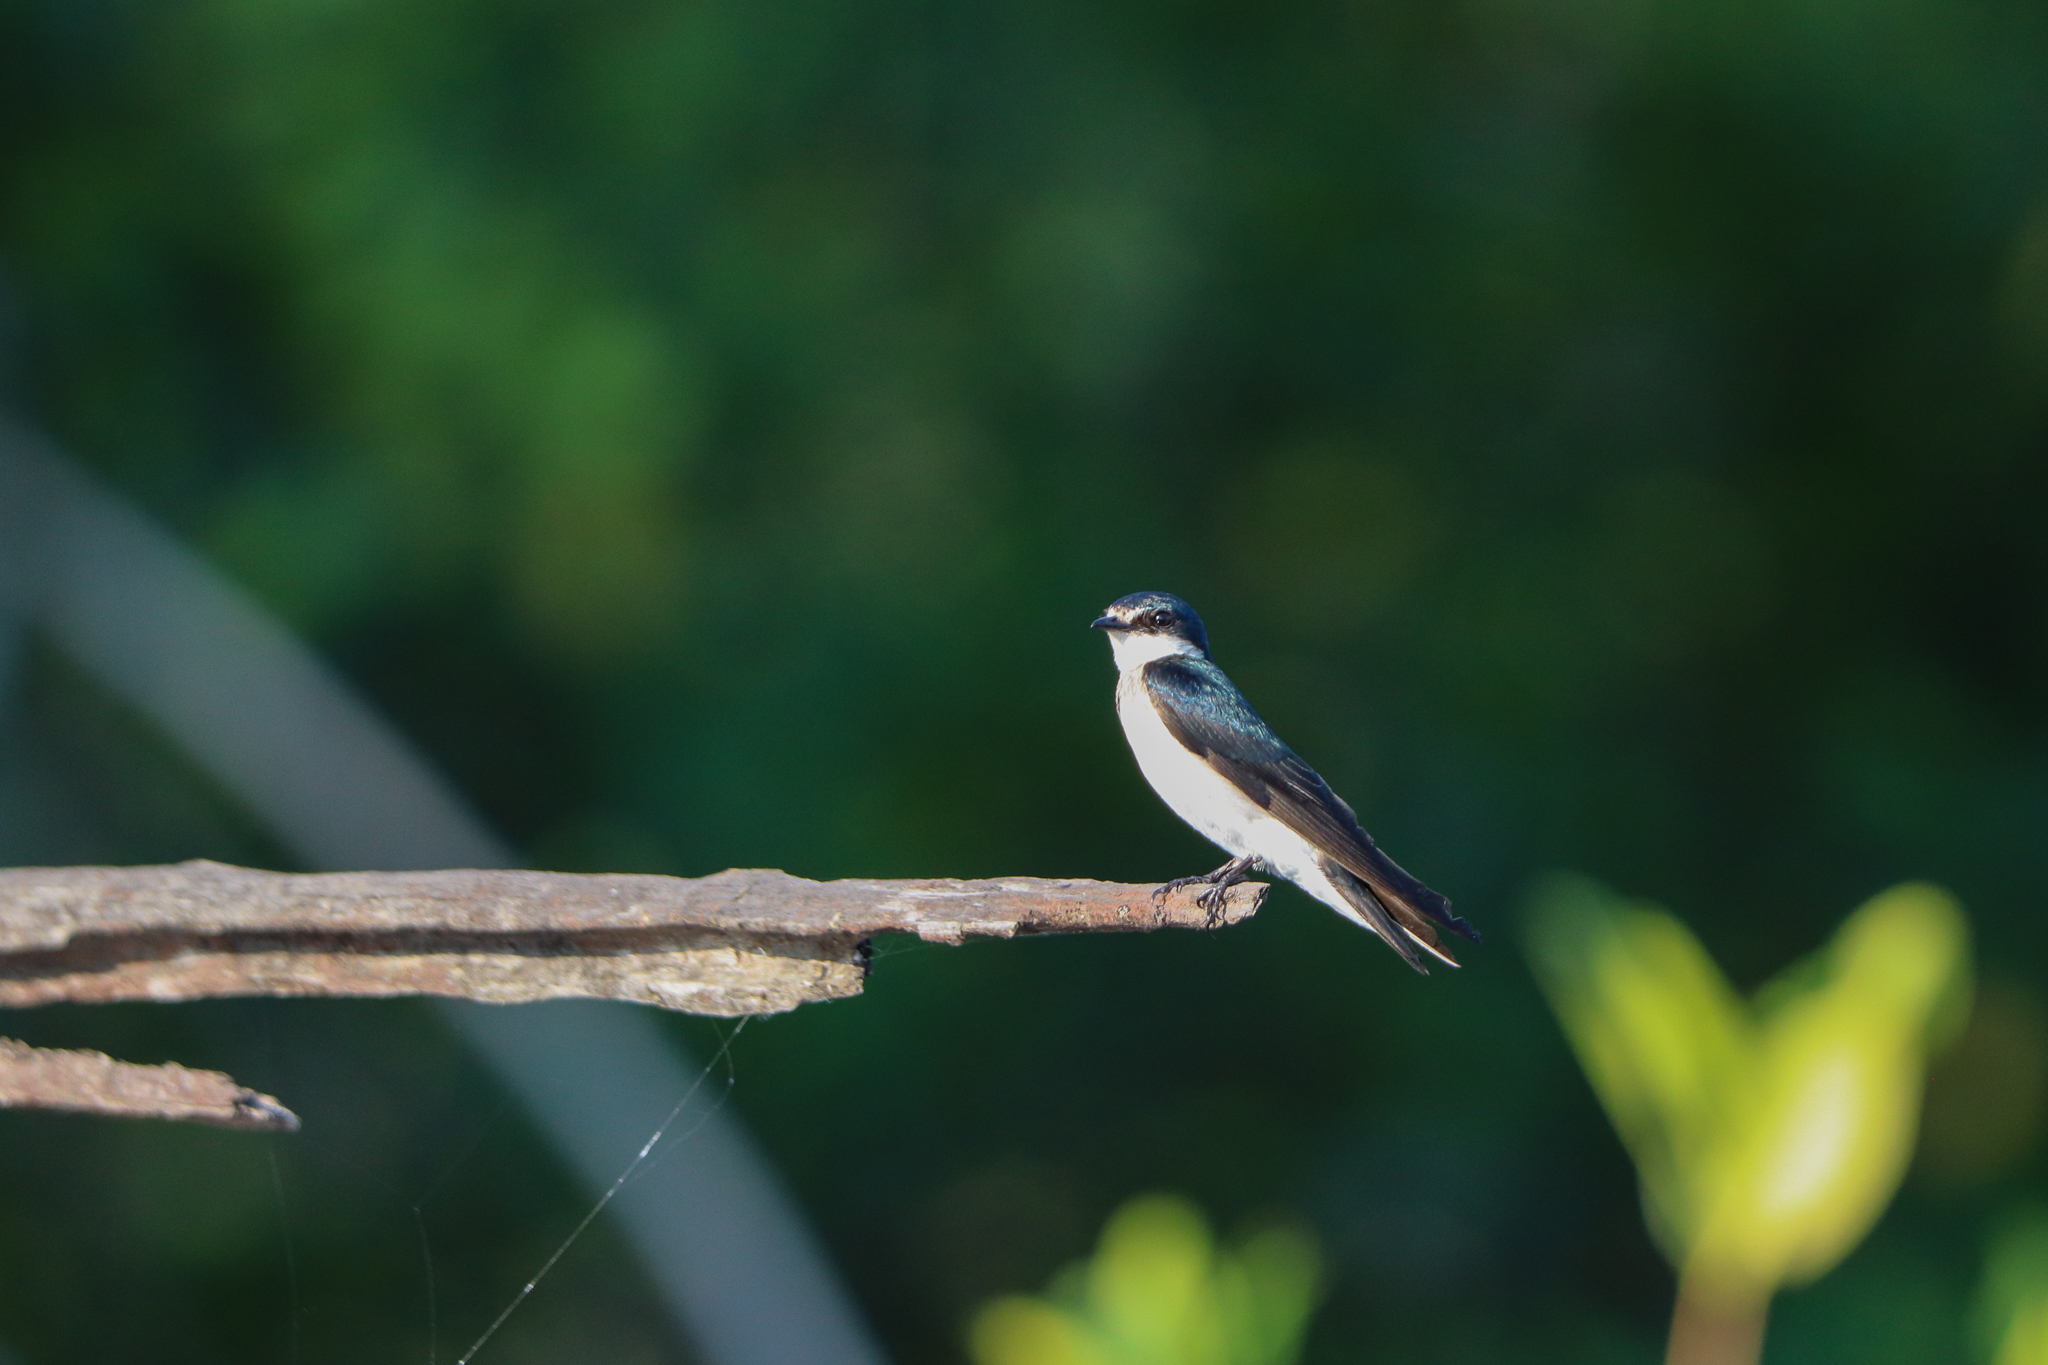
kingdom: Animalia
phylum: Chordata
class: Aves
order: Passeriformes
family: Hirundinidae
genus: Tachycineta
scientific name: Tachycineta albilinea
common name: Mangrove swallow
